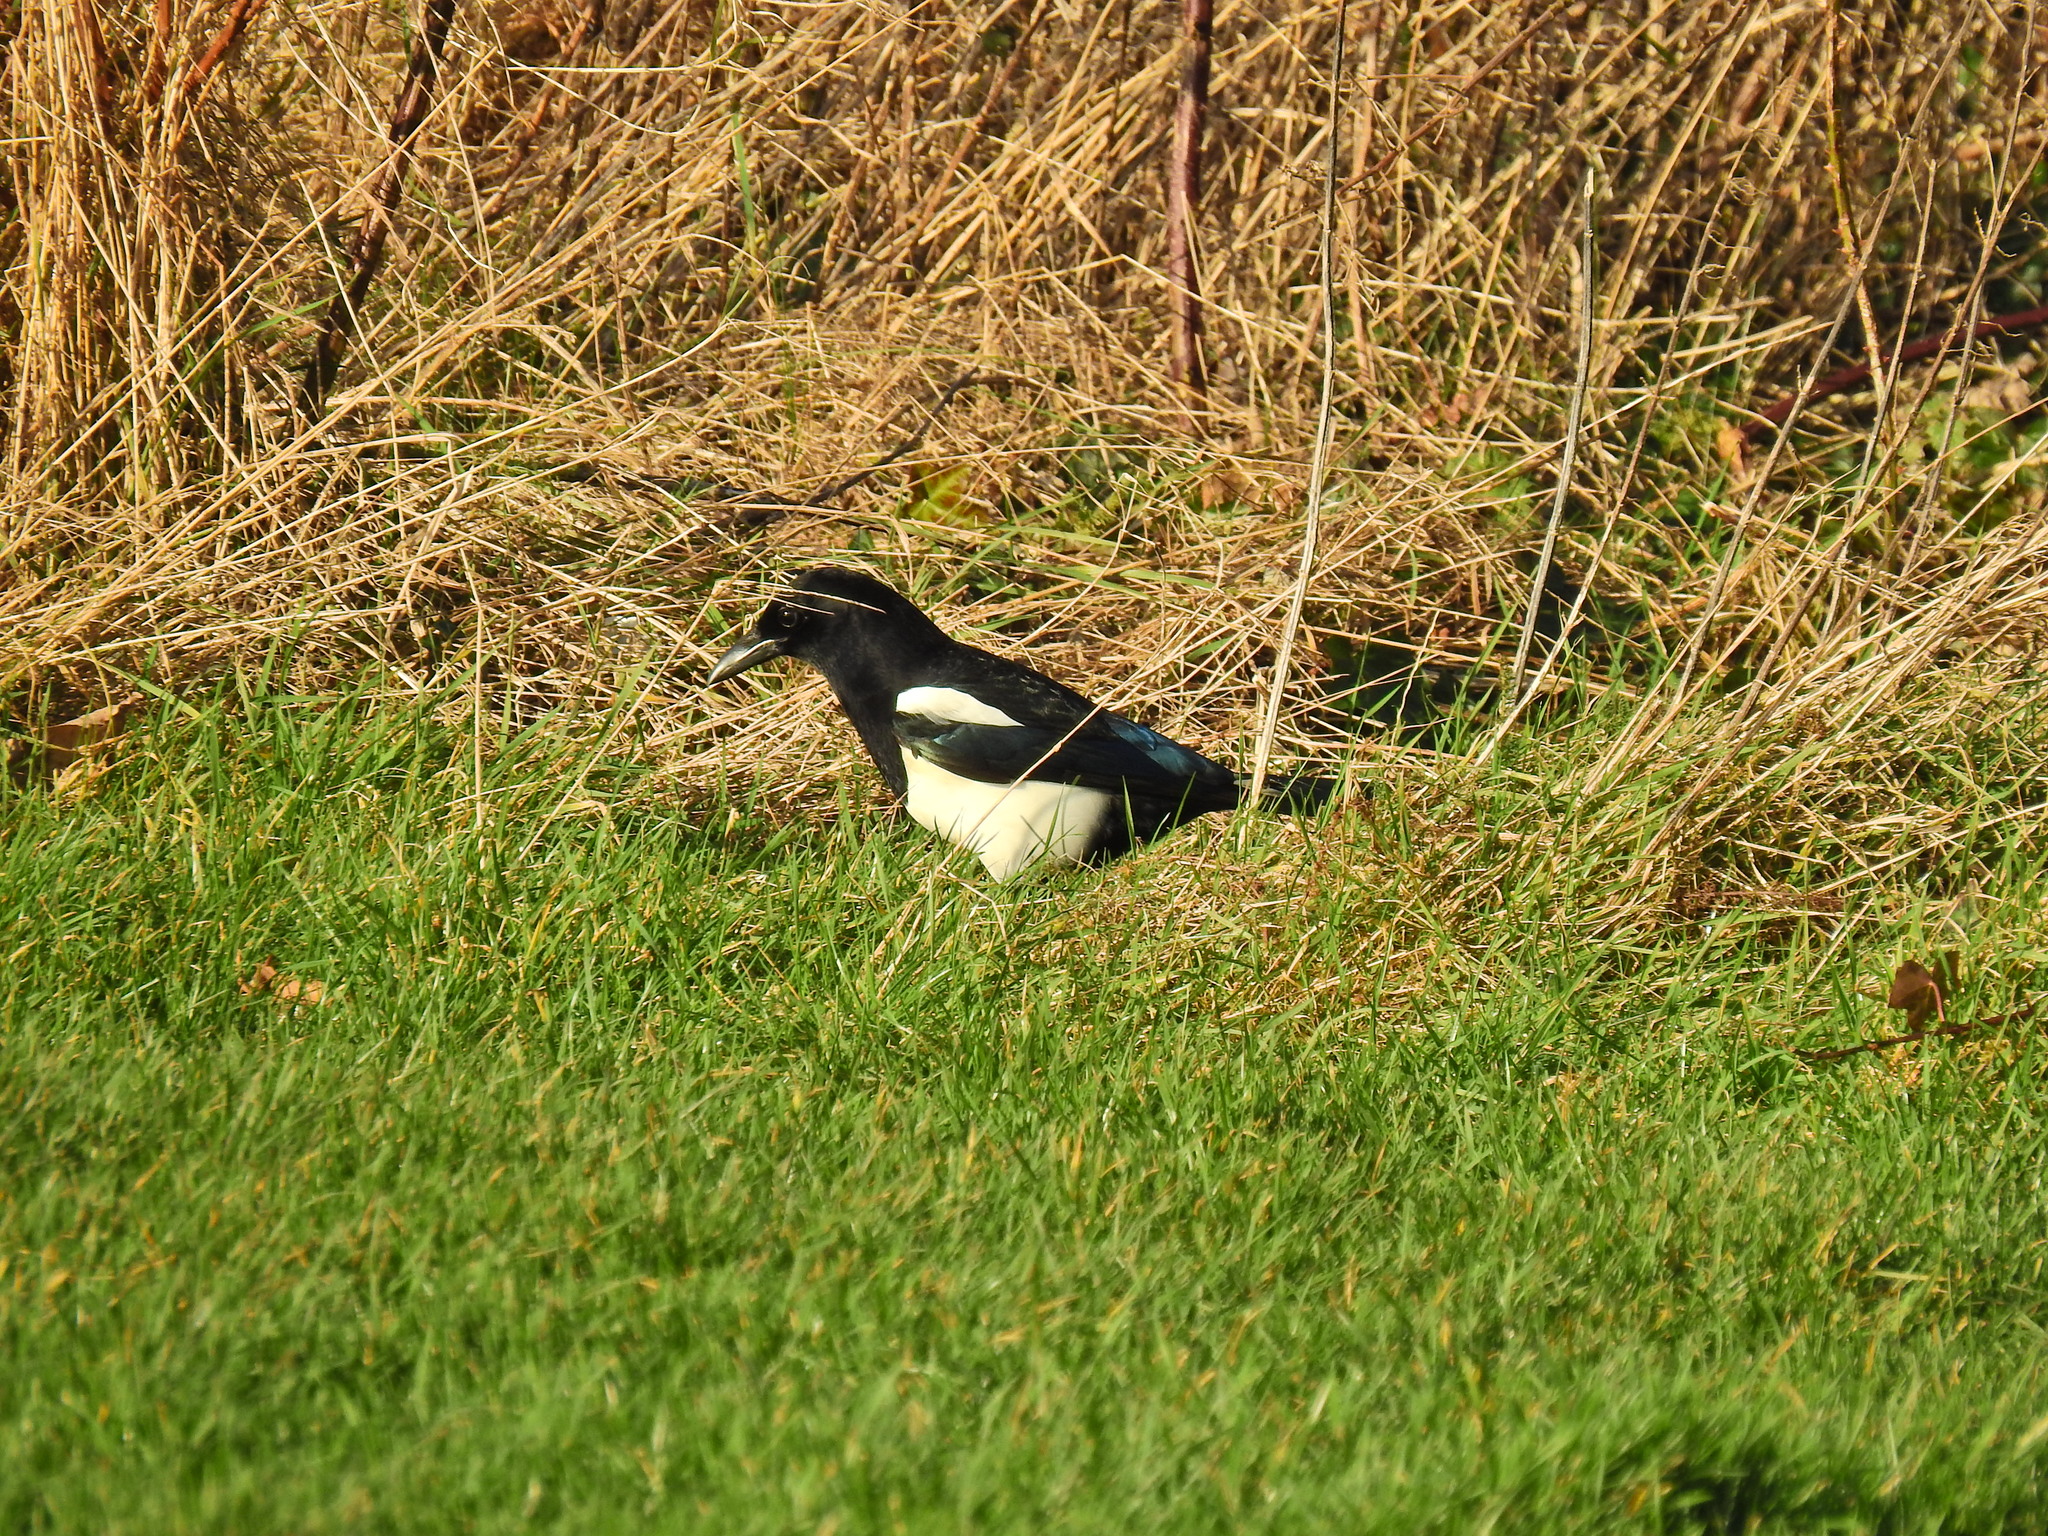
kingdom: Animalia
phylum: Chordata
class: Aves
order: Passeriformes
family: Corvidae
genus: Pica
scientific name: Pica pica
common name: Eurasian magpie
